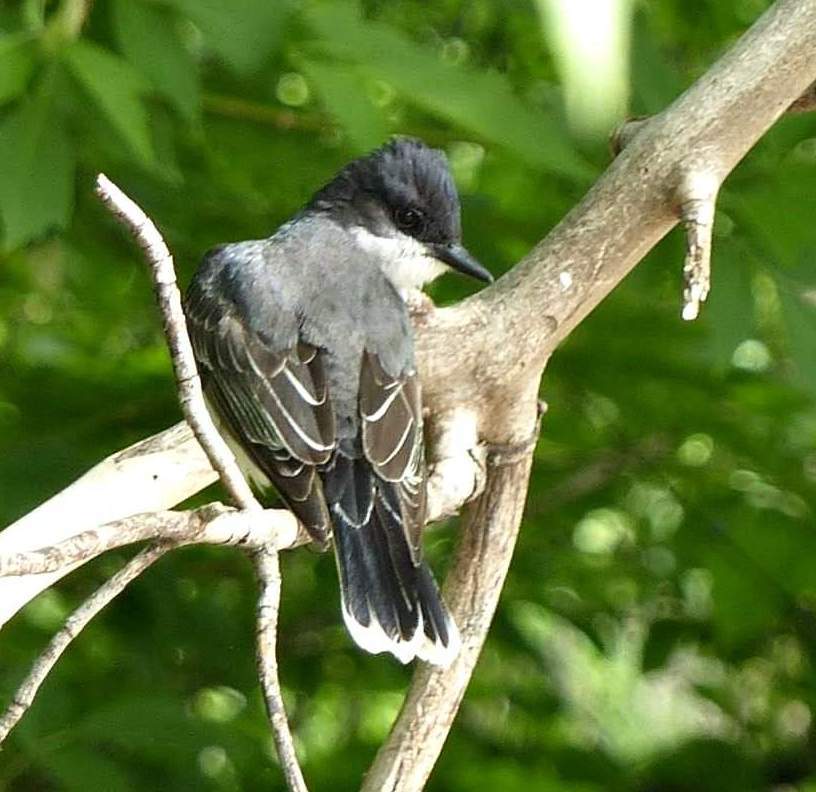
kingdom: Animalia
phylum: Chordata
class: Aves
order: Passeriformes
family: Tyrannidae
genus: Tyrannus
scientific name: Tyrannus tyrannus
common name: Eastern kingbird
